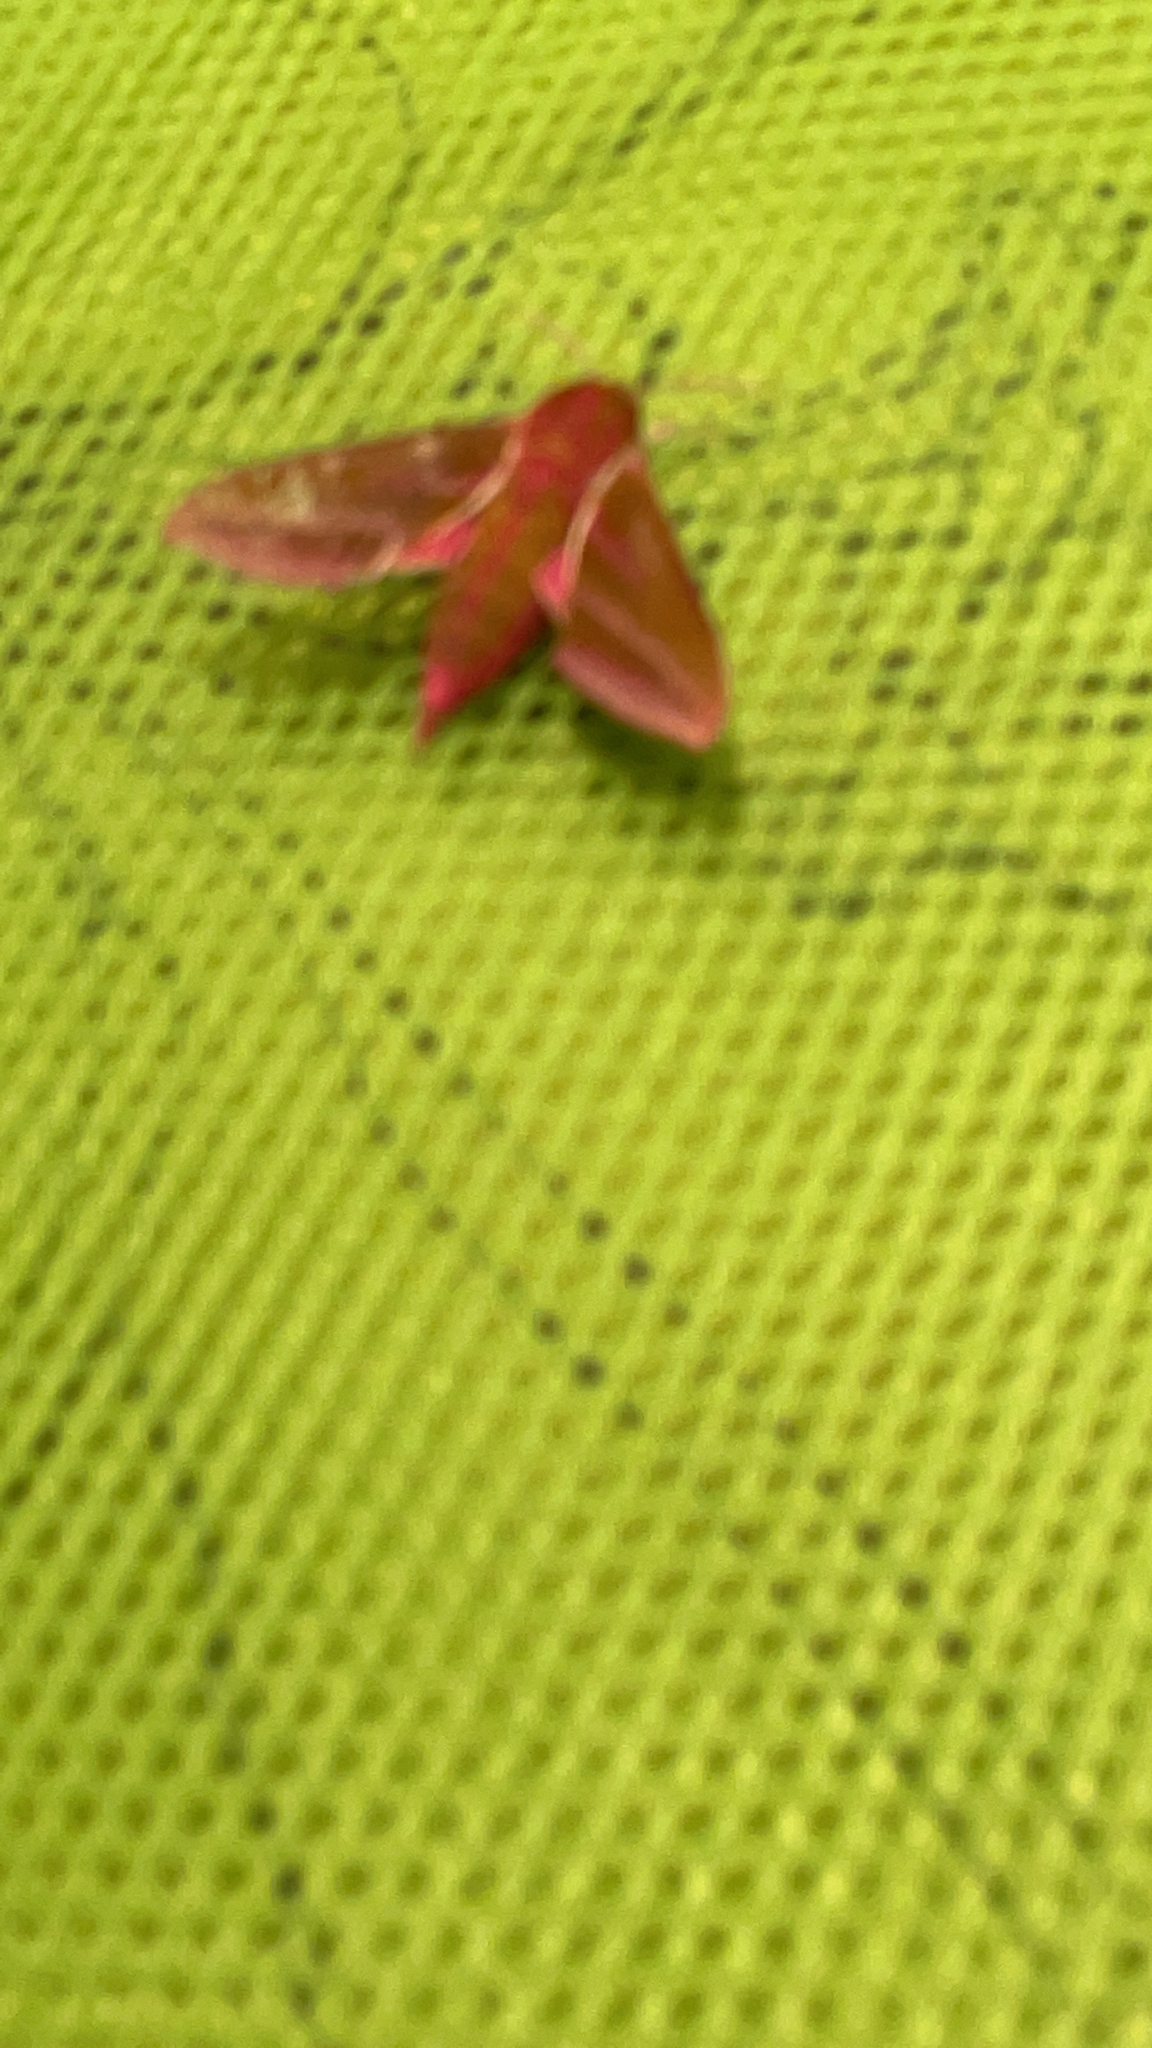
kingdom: Animalia
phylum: Arthropoda
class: Insecta
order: Lepidoptera
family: Sphingidae
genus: Deilephila
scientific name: Deilephila elpenor
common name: Elephant hawk-moth
